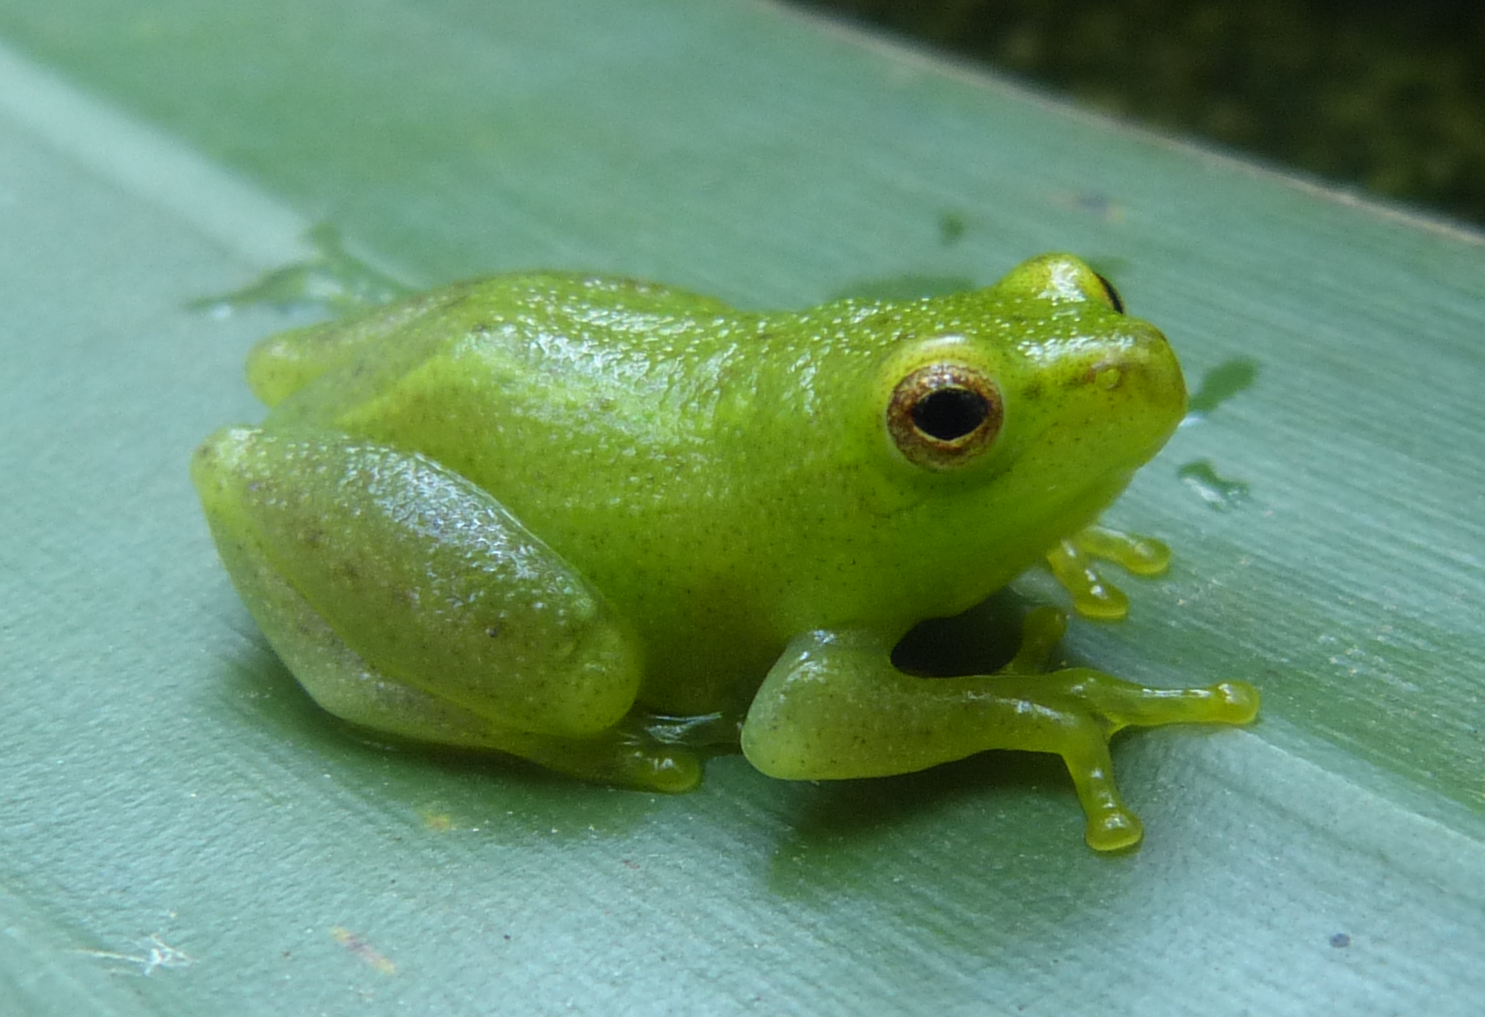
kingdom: Animalia
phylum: Chordata
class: Amphibia
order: Anura
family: Hyperoliidae
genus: Hyperolius
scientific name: Hyperolius pusillus
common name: Water lily reed frog
